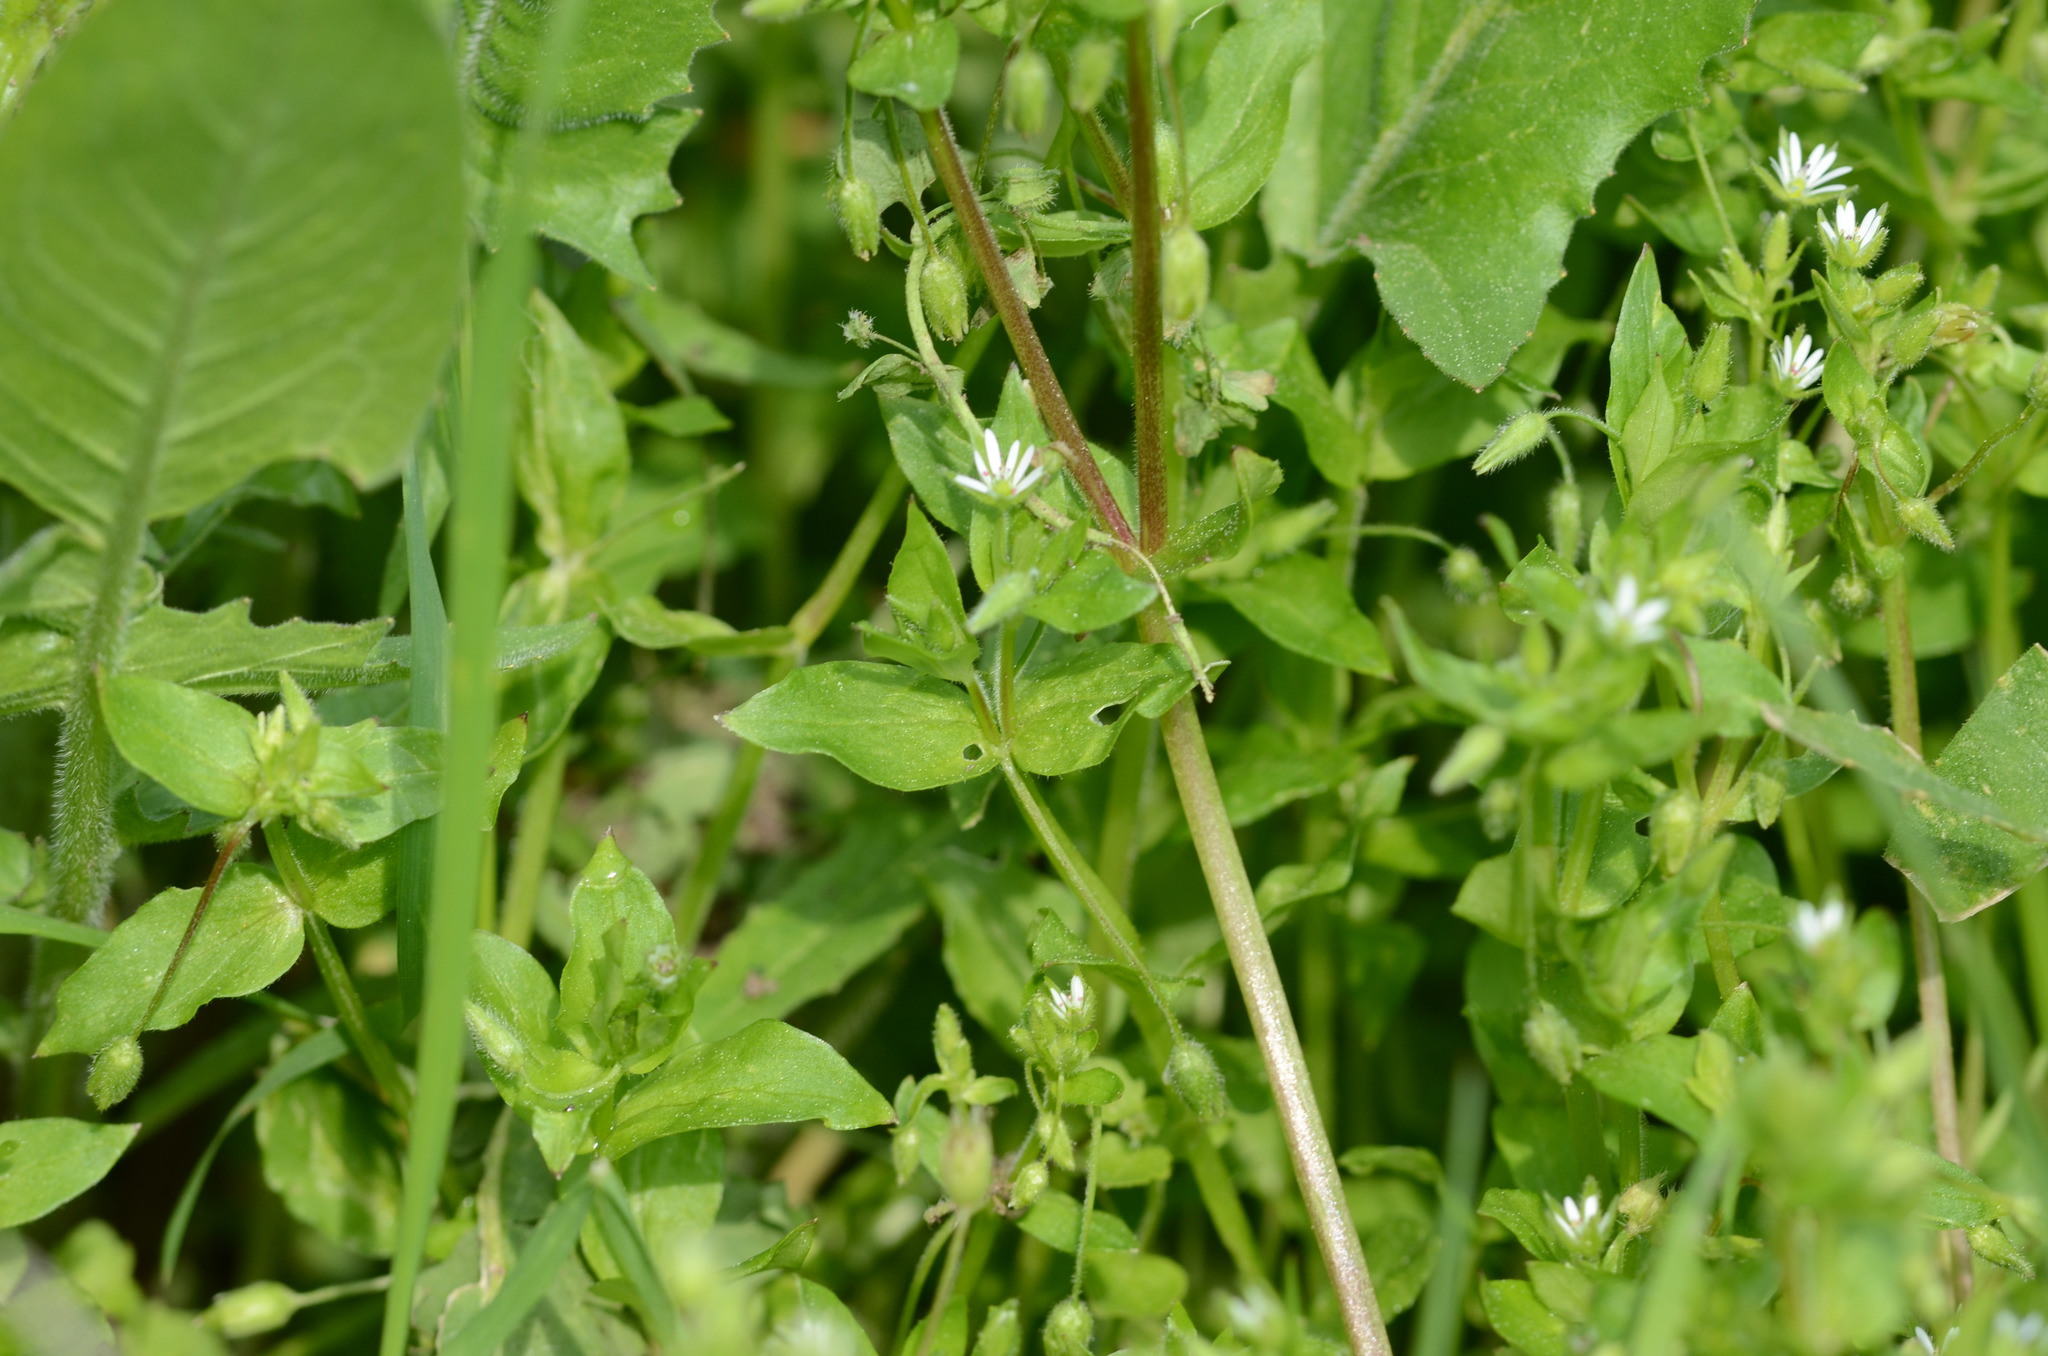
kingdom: Plantae
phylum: Tracheophyta
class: Magnoliopsida
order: Caryophyllales
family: Caryophyllaceae
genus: Stellaria
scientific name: Stellaria
